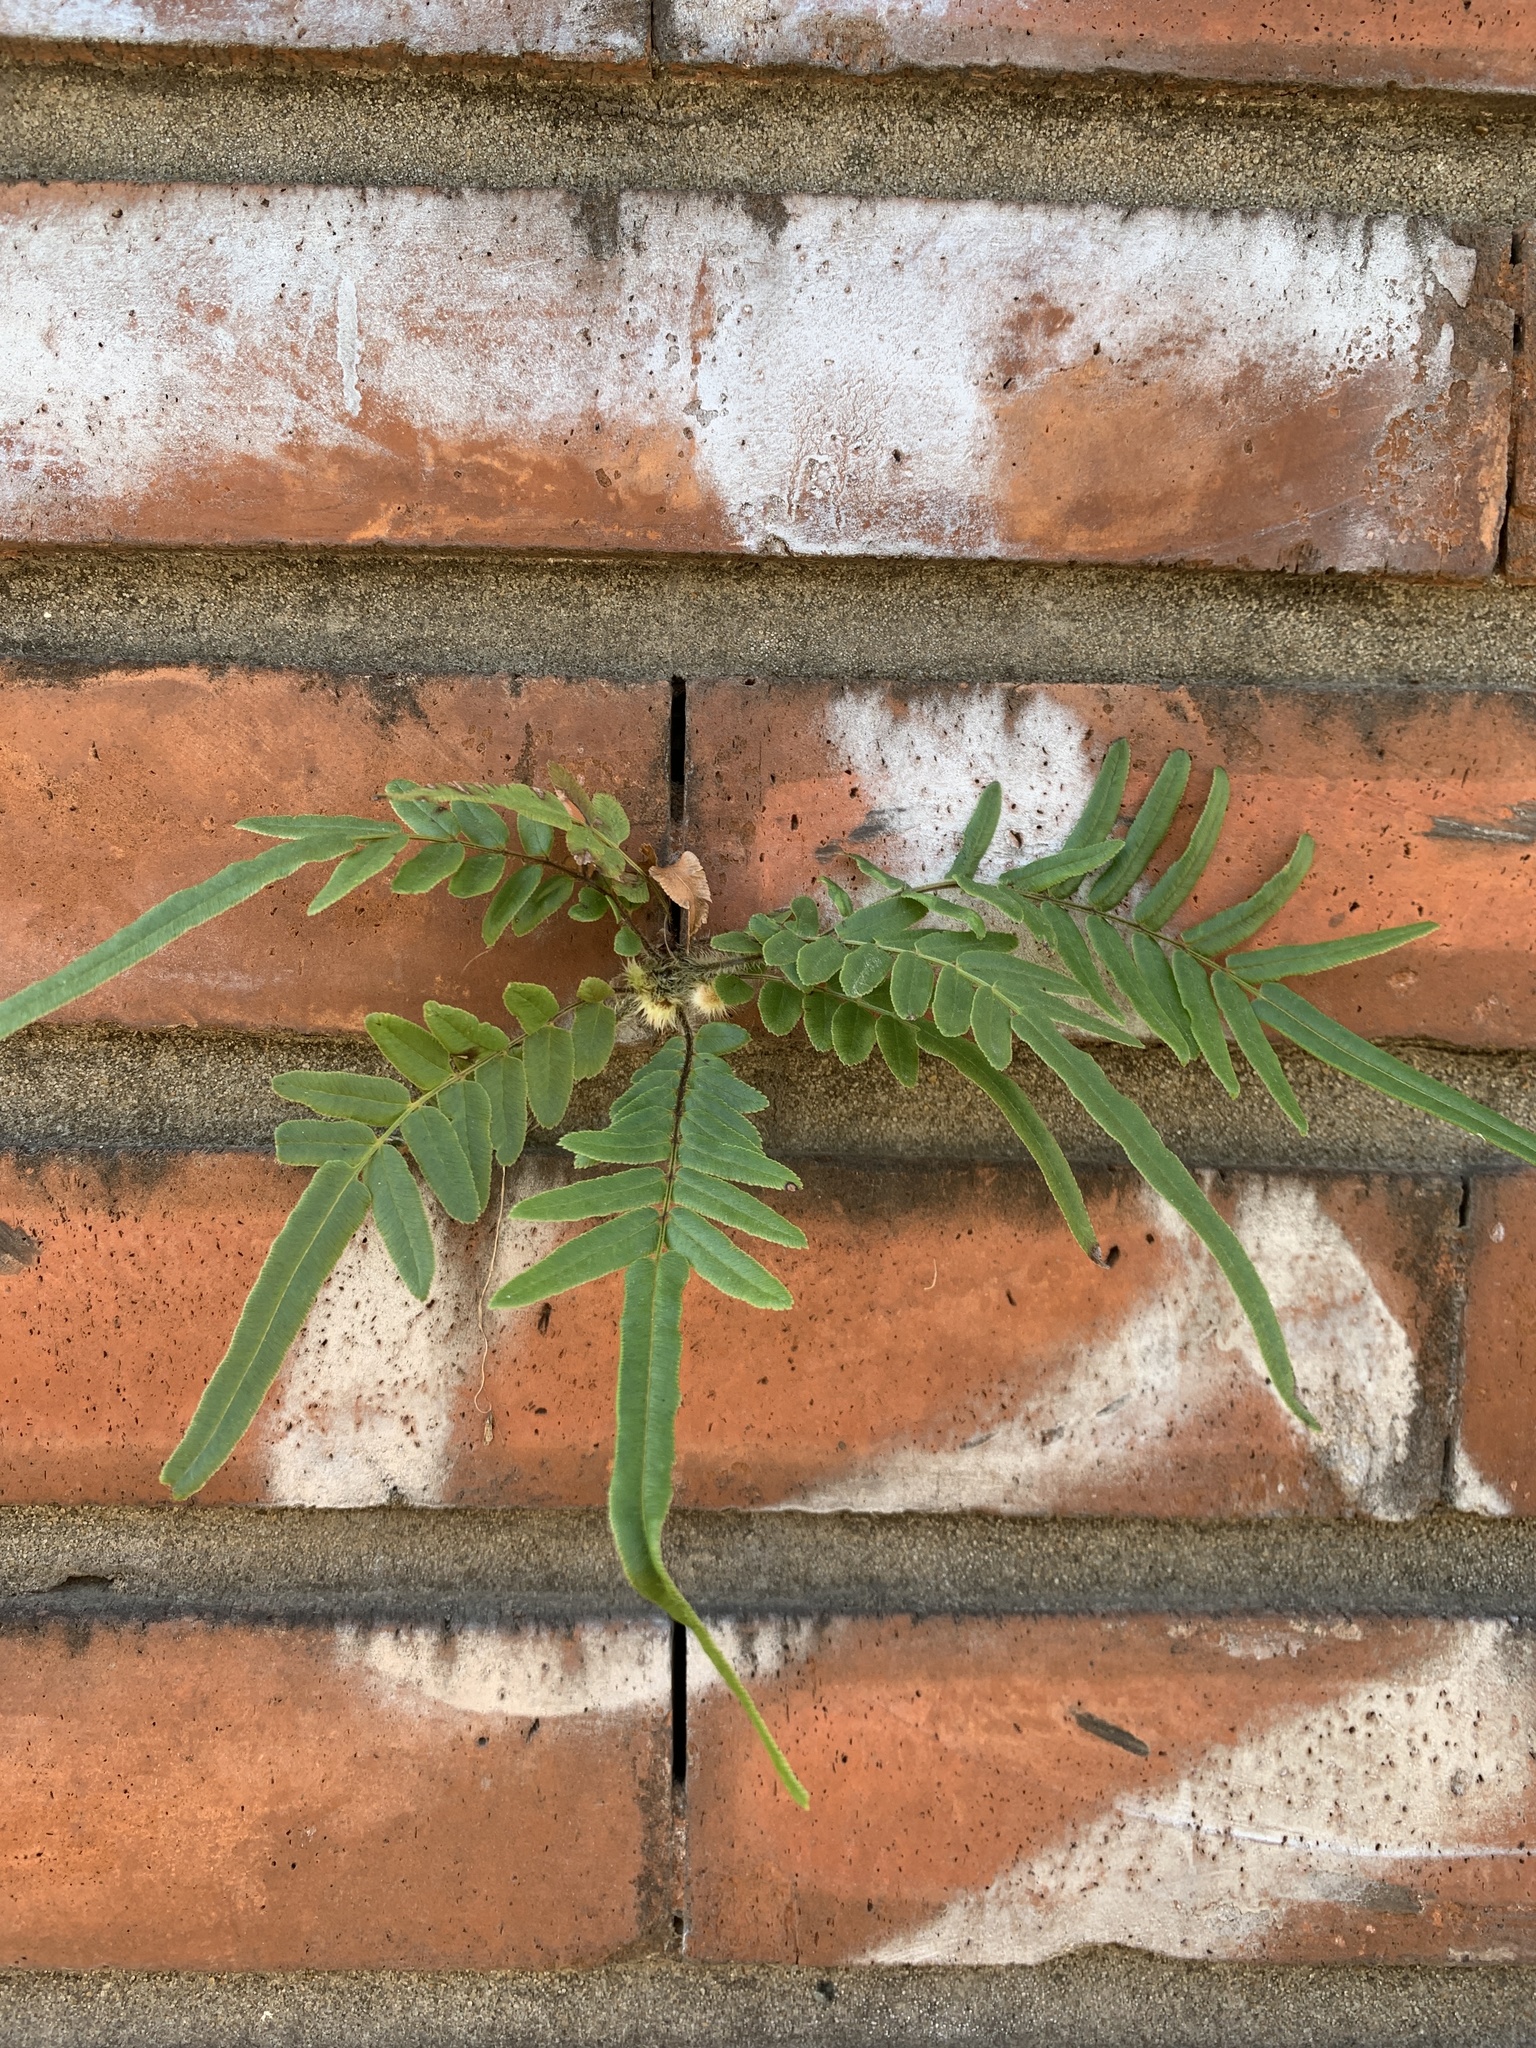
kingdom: Plantae
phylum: Tracheophyta
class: Polypodiopsida
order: Polypodiales
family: Pteridaceae
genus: Pteris
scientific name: Pteris vittata
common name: Ladder brake
